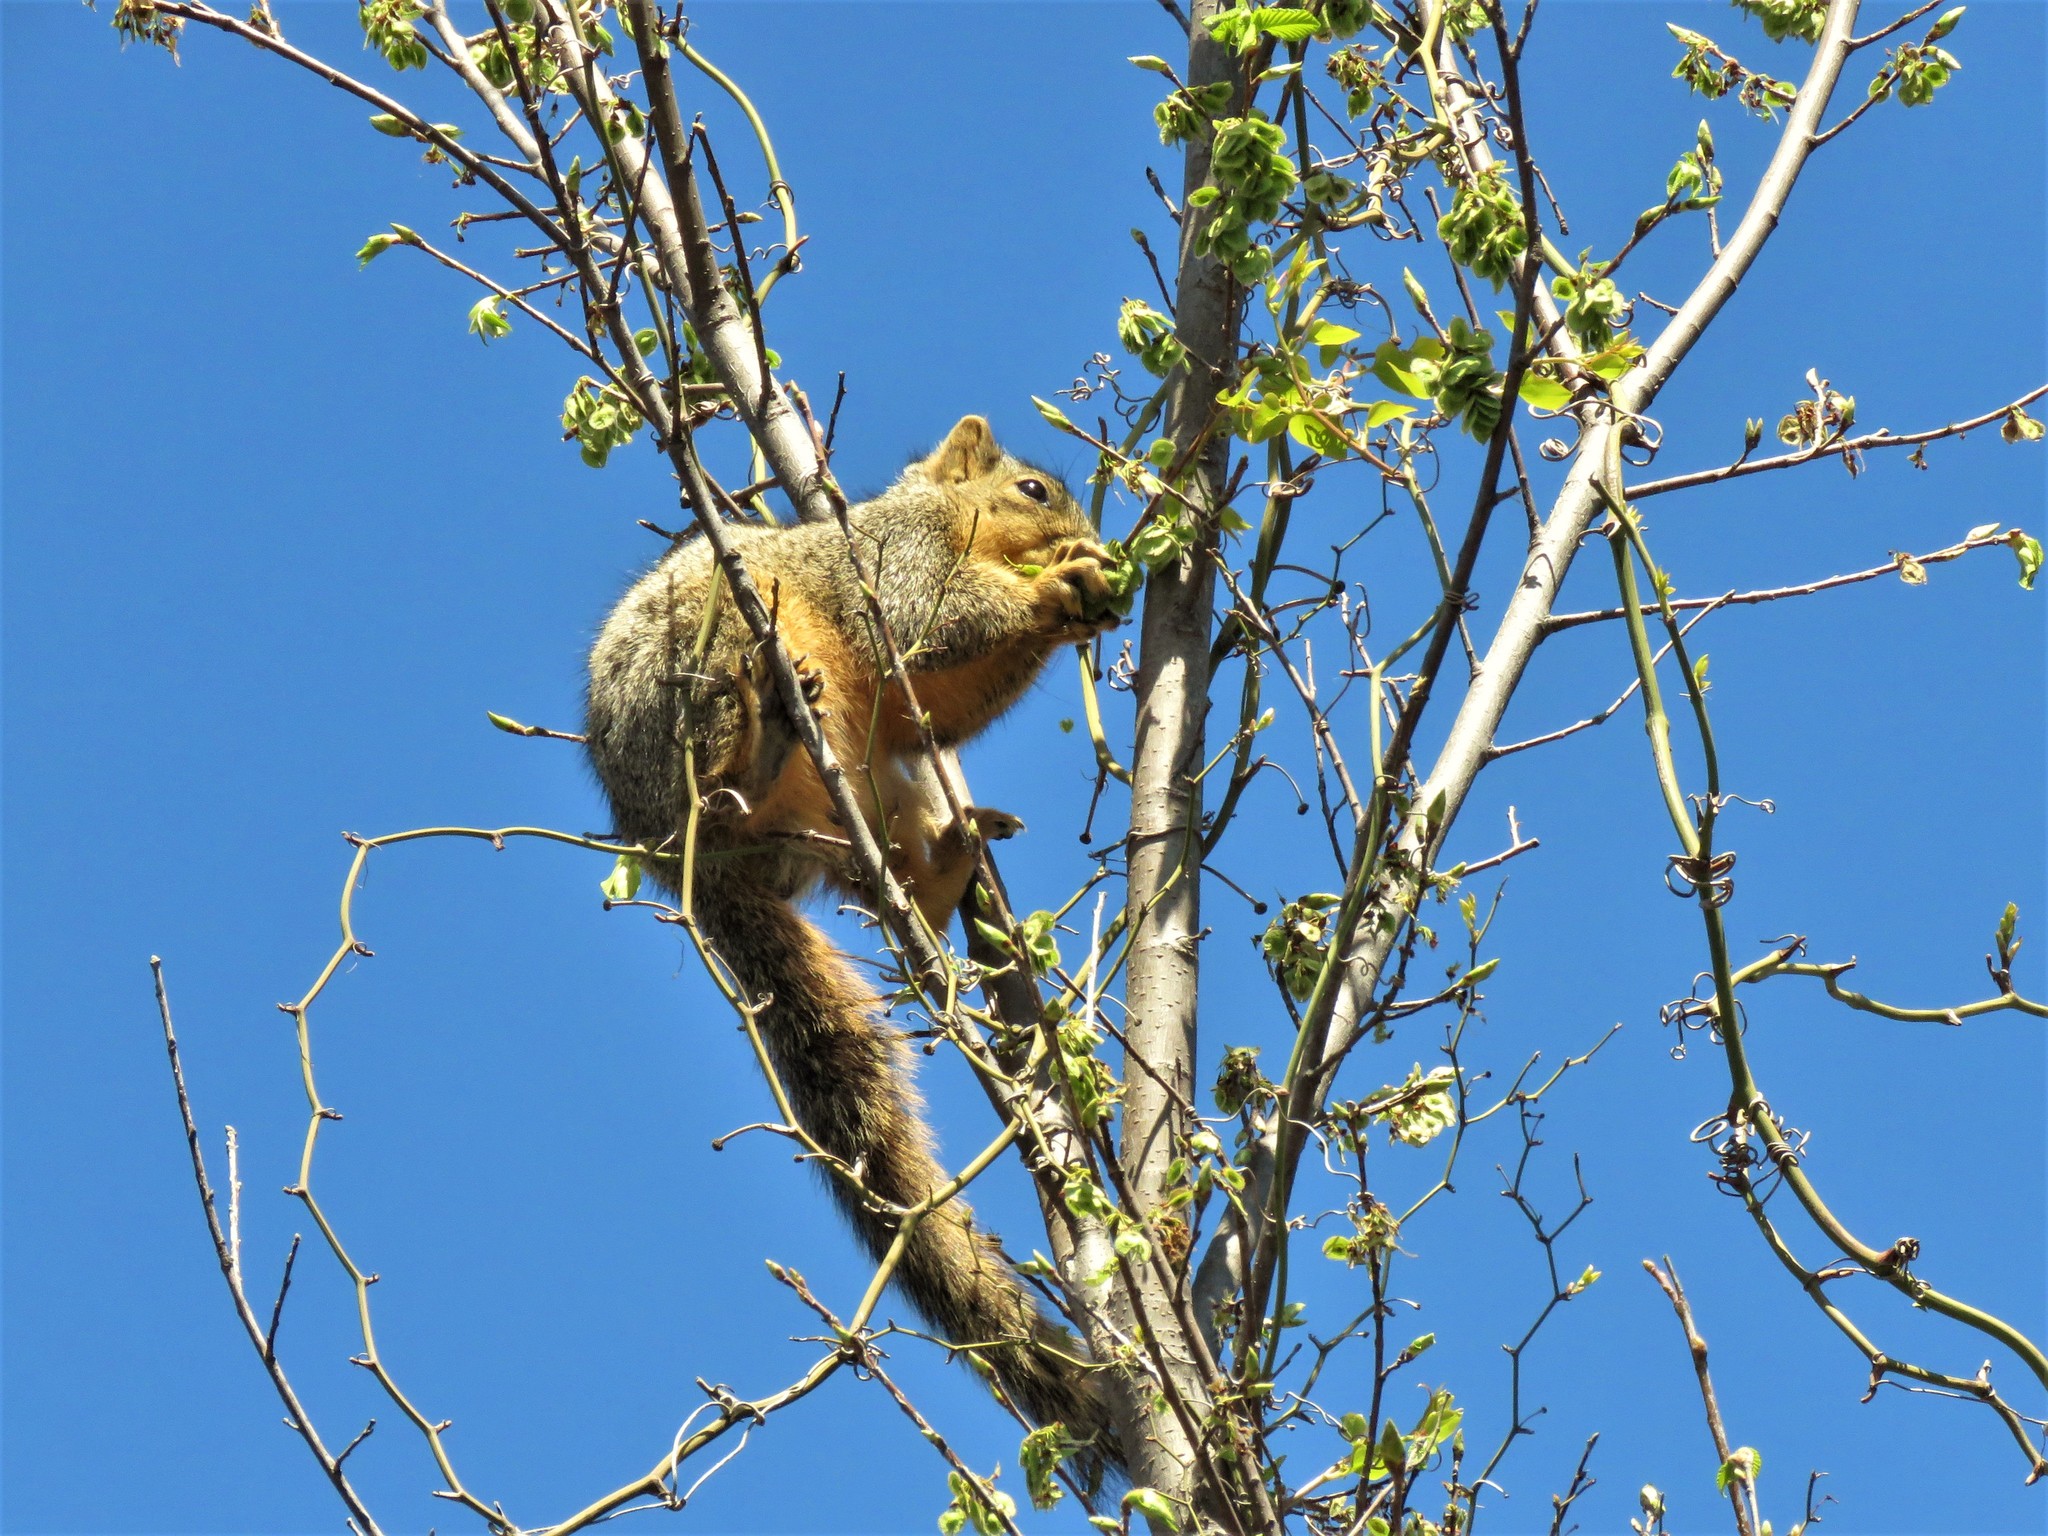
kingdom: Animalia
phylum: Chordata
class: Mammalia
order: Rodentia
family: Sciuridae
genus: Sciurus
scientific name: Sciurus niger
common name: Fox squirrel
